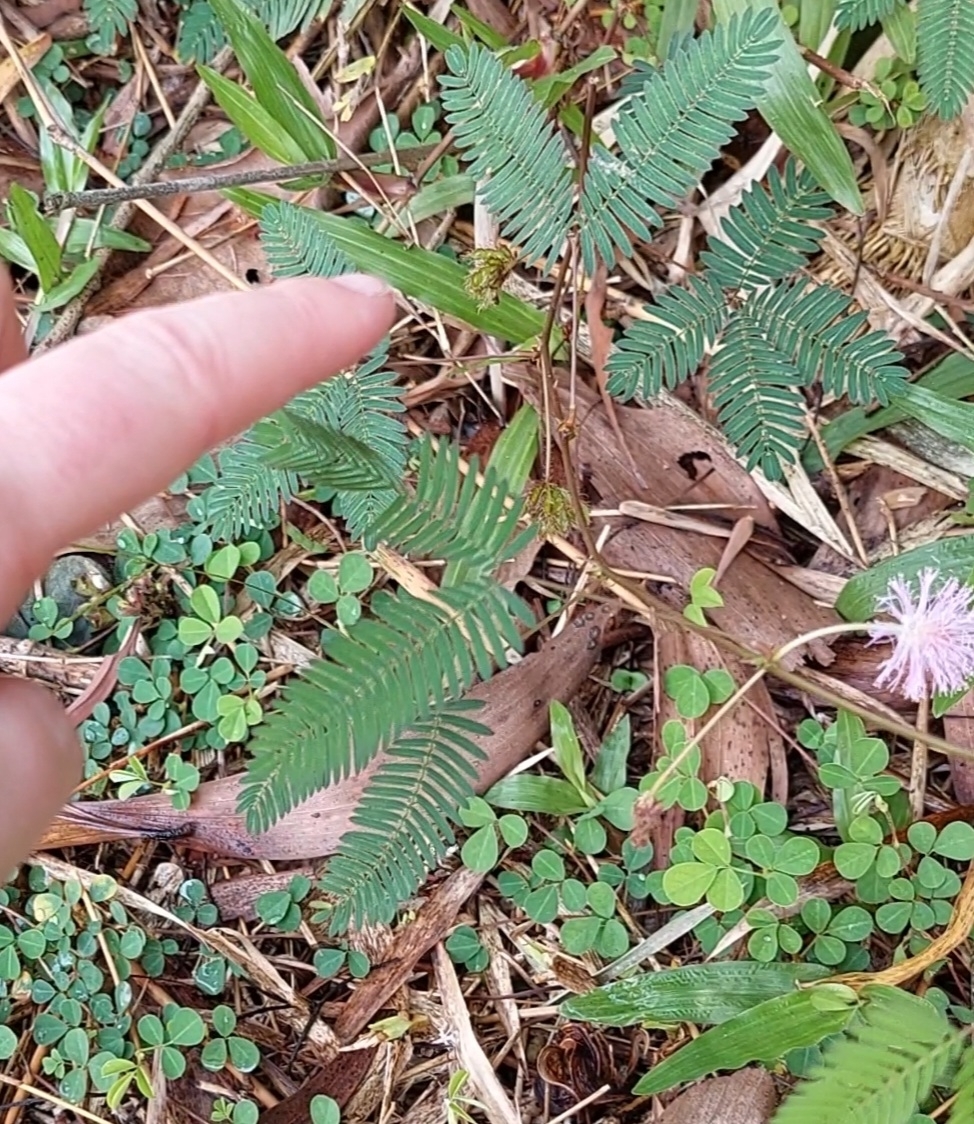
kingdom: Plantae
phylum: Tracheophyta
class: Magnoliopsida
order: Fabales
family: Fabaceae
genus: Mimosa
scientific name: Mimosa pudica
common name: Sensitive plant
